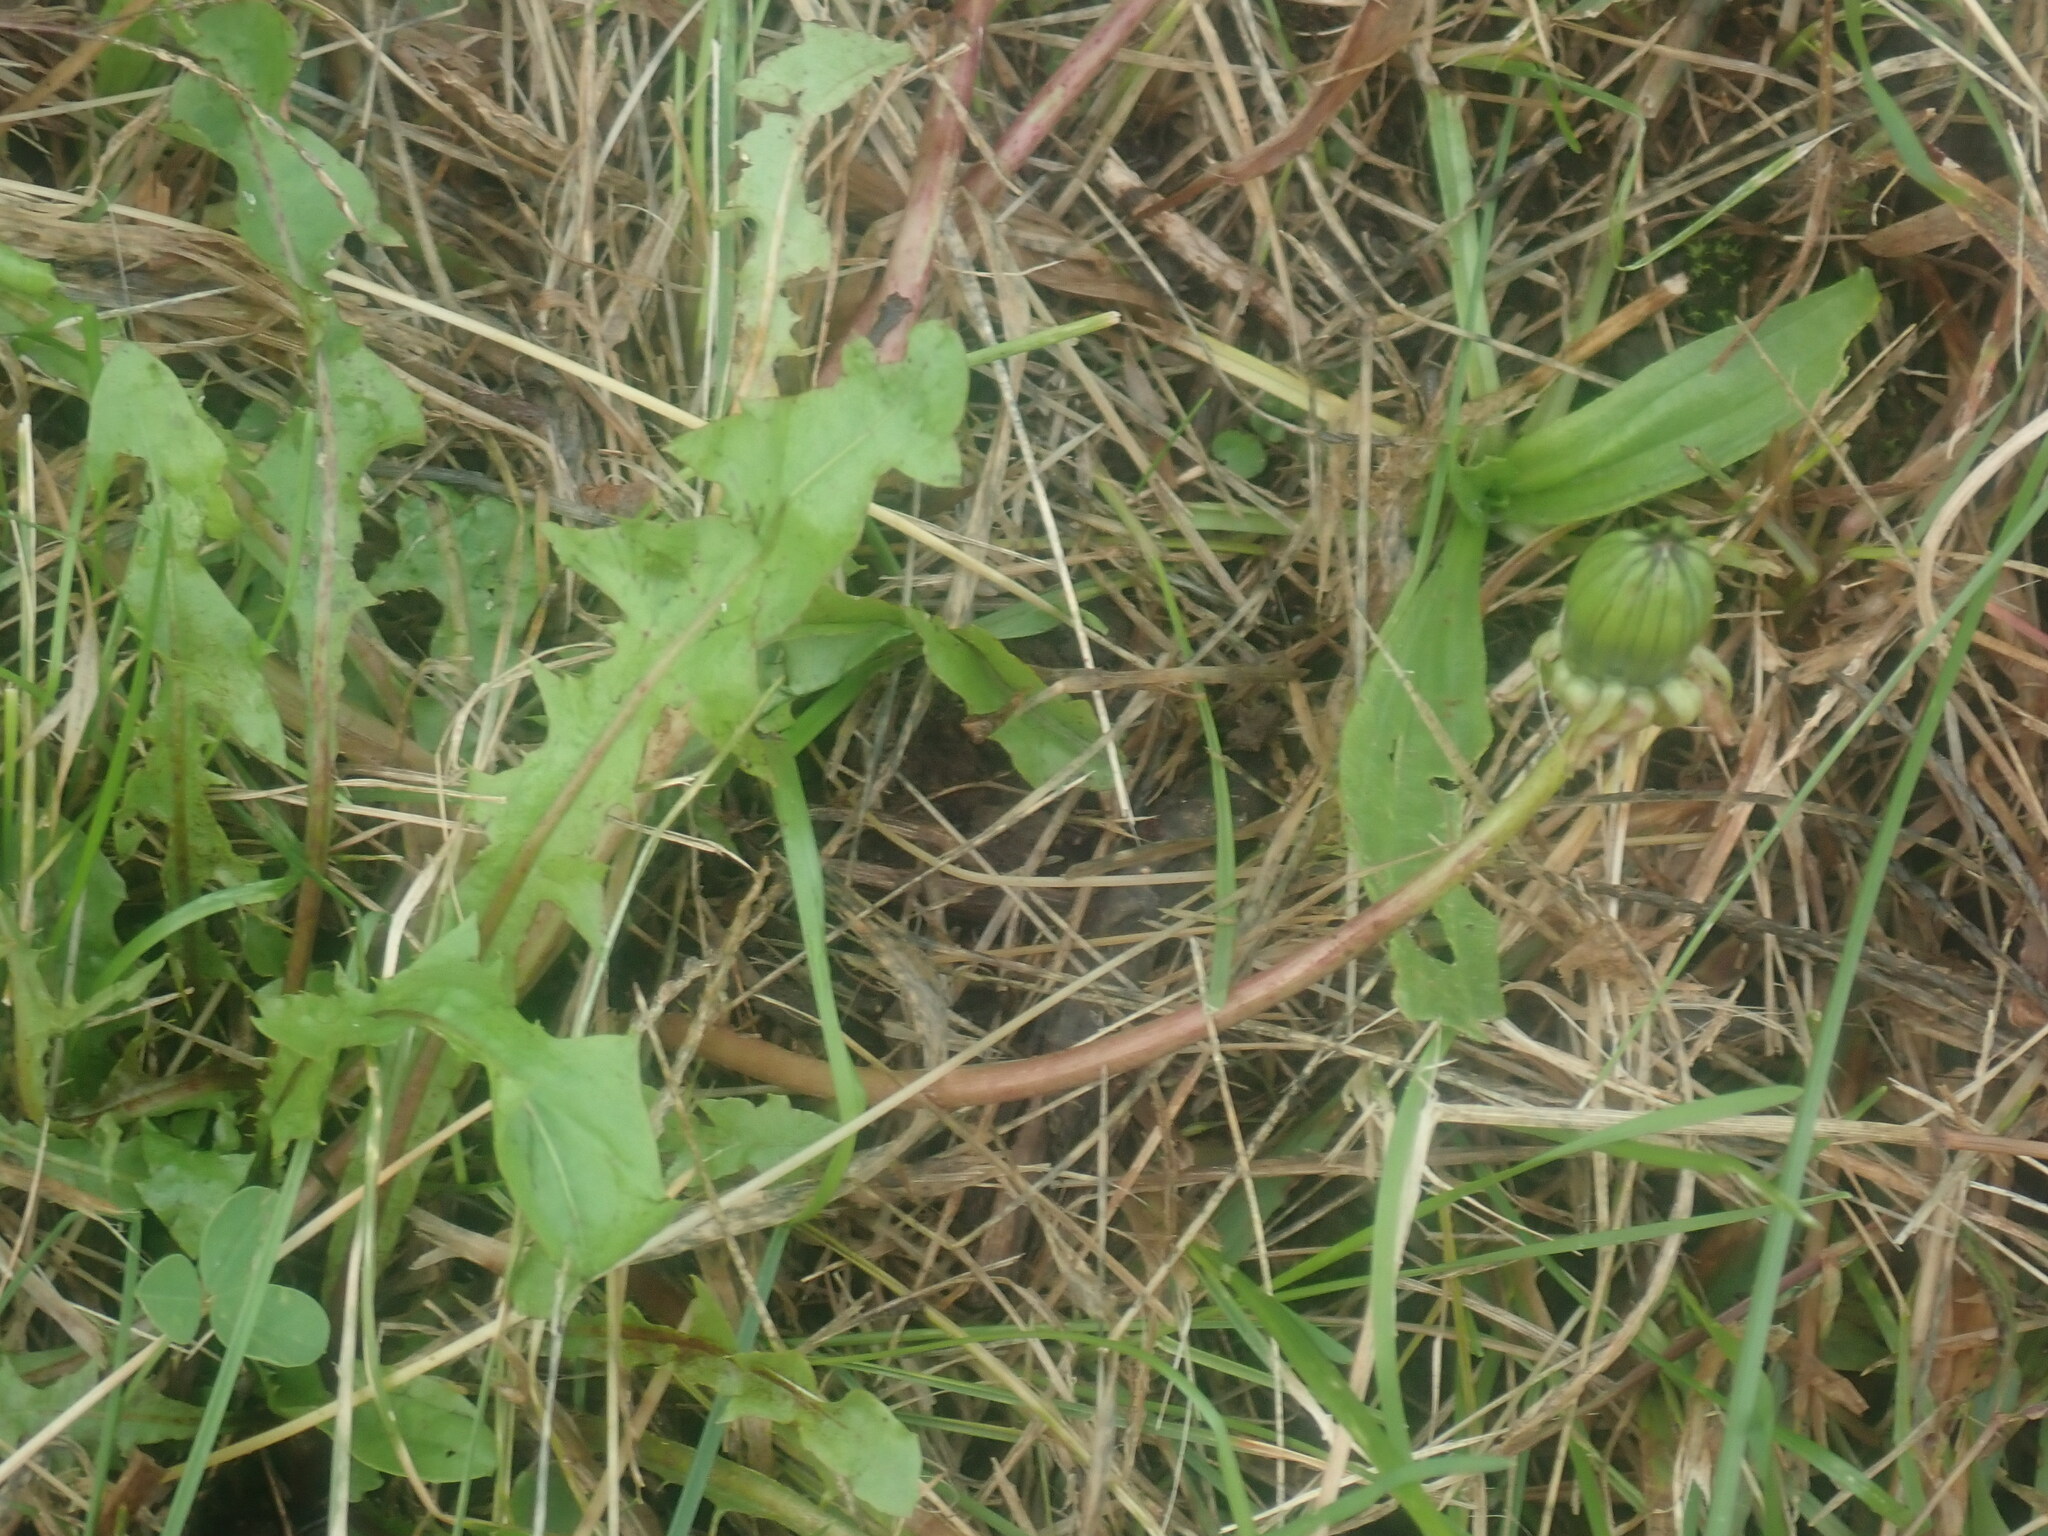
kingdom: Plantae
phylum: Tracheophyta
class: Magnoliopsida
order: Asterales
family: Asteraceae
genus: Taraxacum
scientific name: Taraxacum
